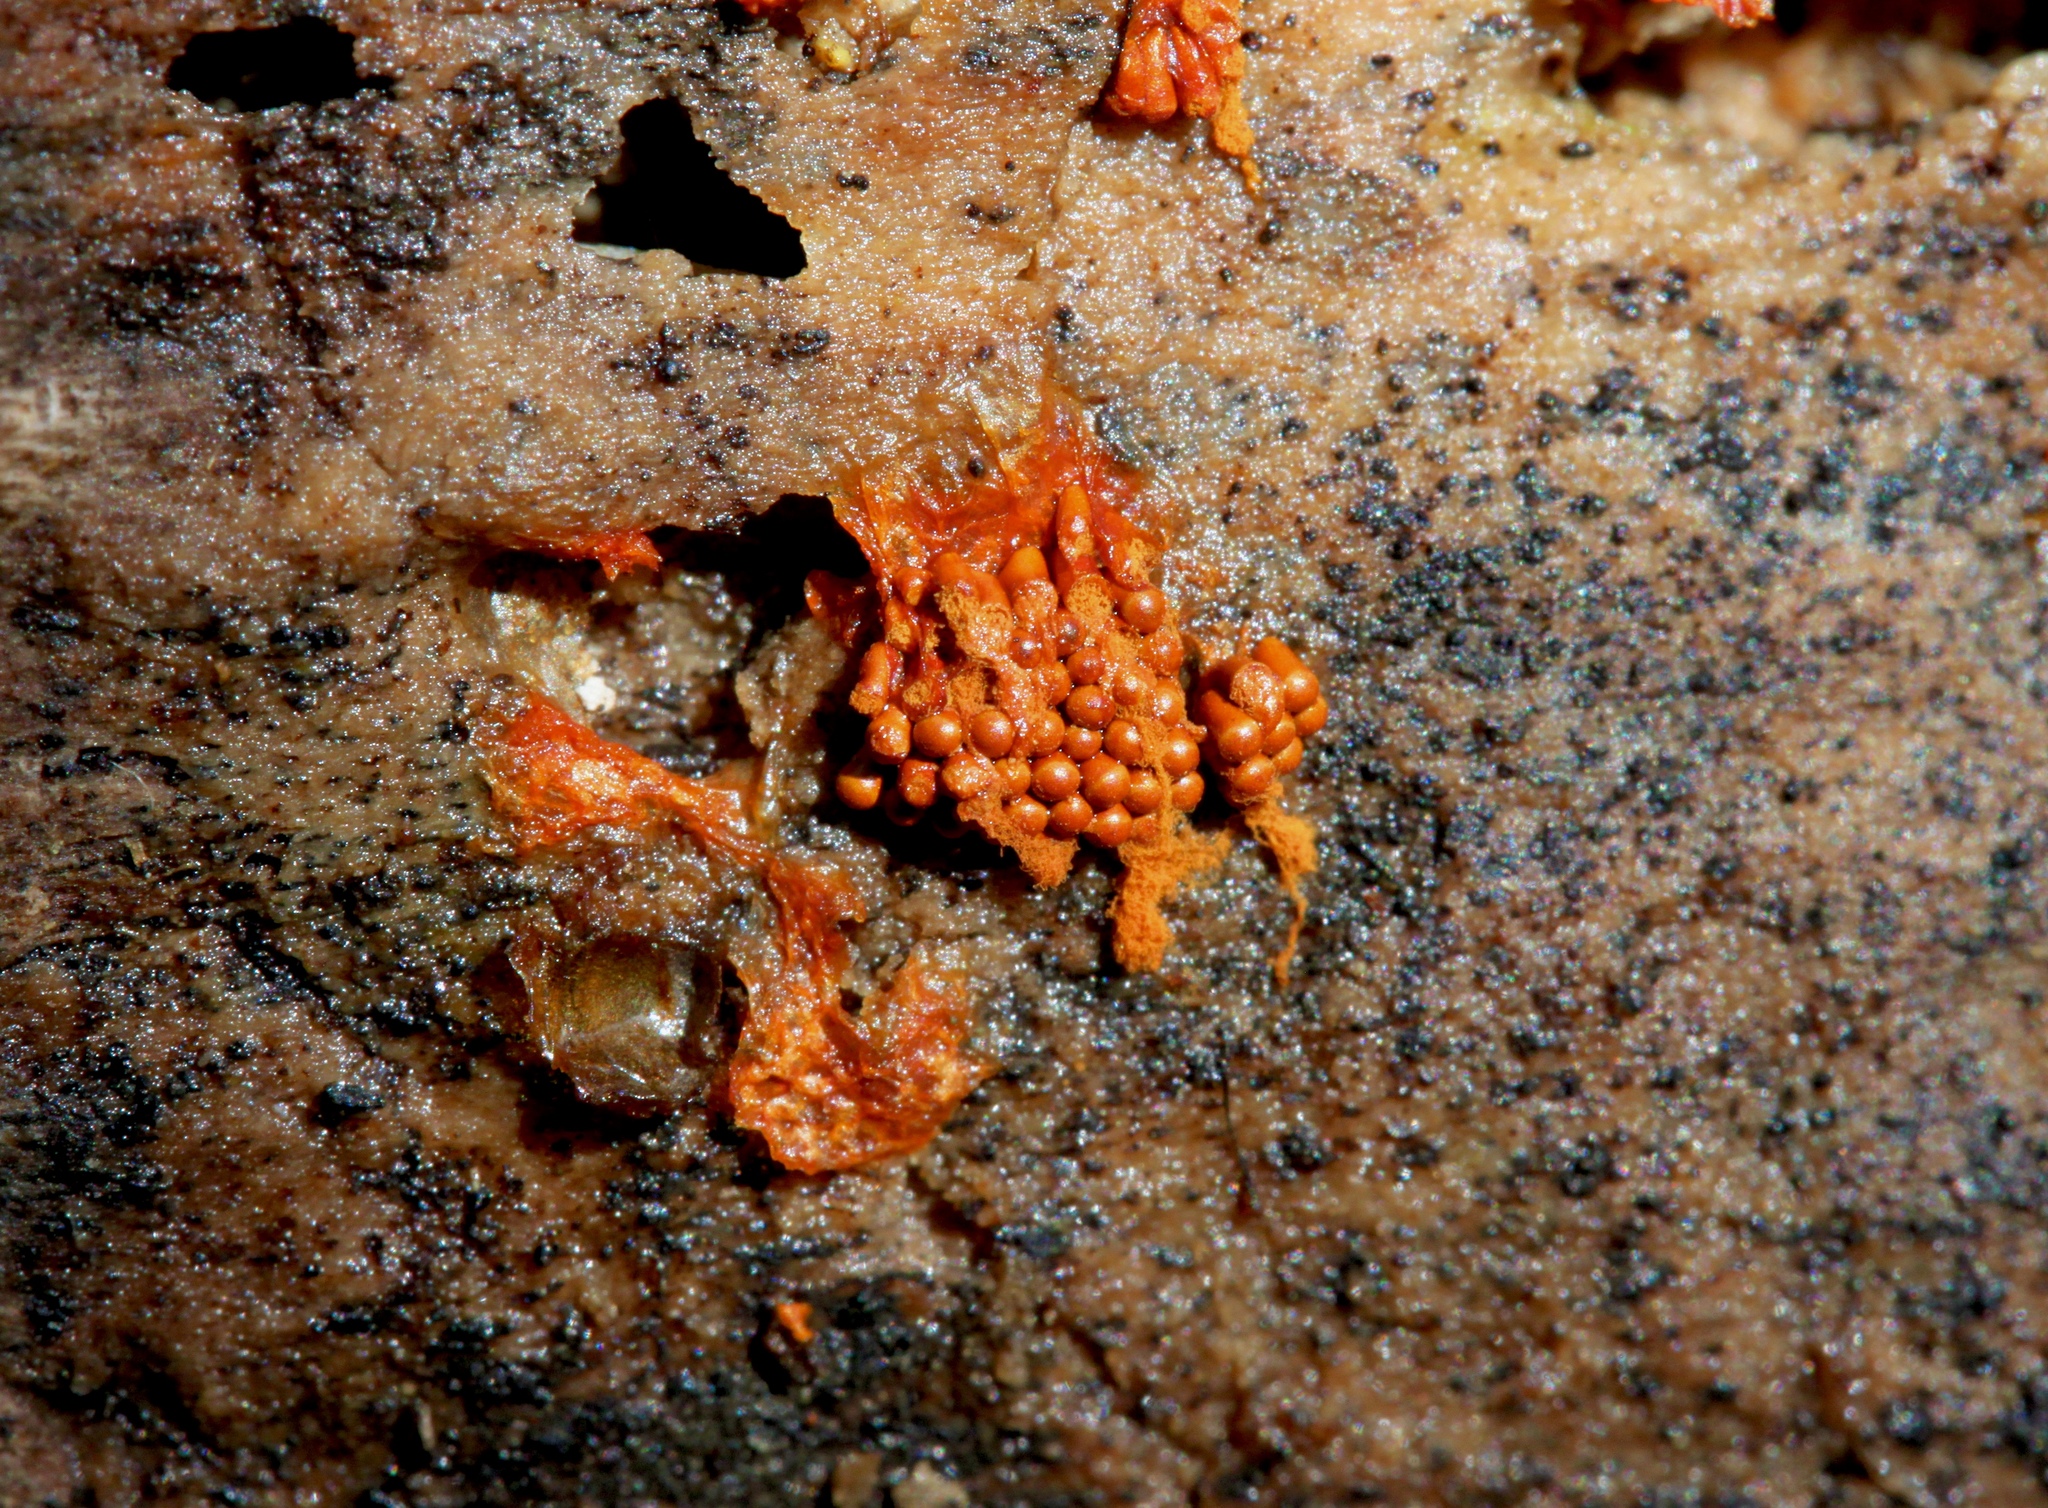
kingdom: Protozoa
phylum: Mycetozoa
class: Myxomycetes
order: Trichiales
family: Trichiaceae
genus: Metatrichia
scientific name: Metatrichia vesparia
